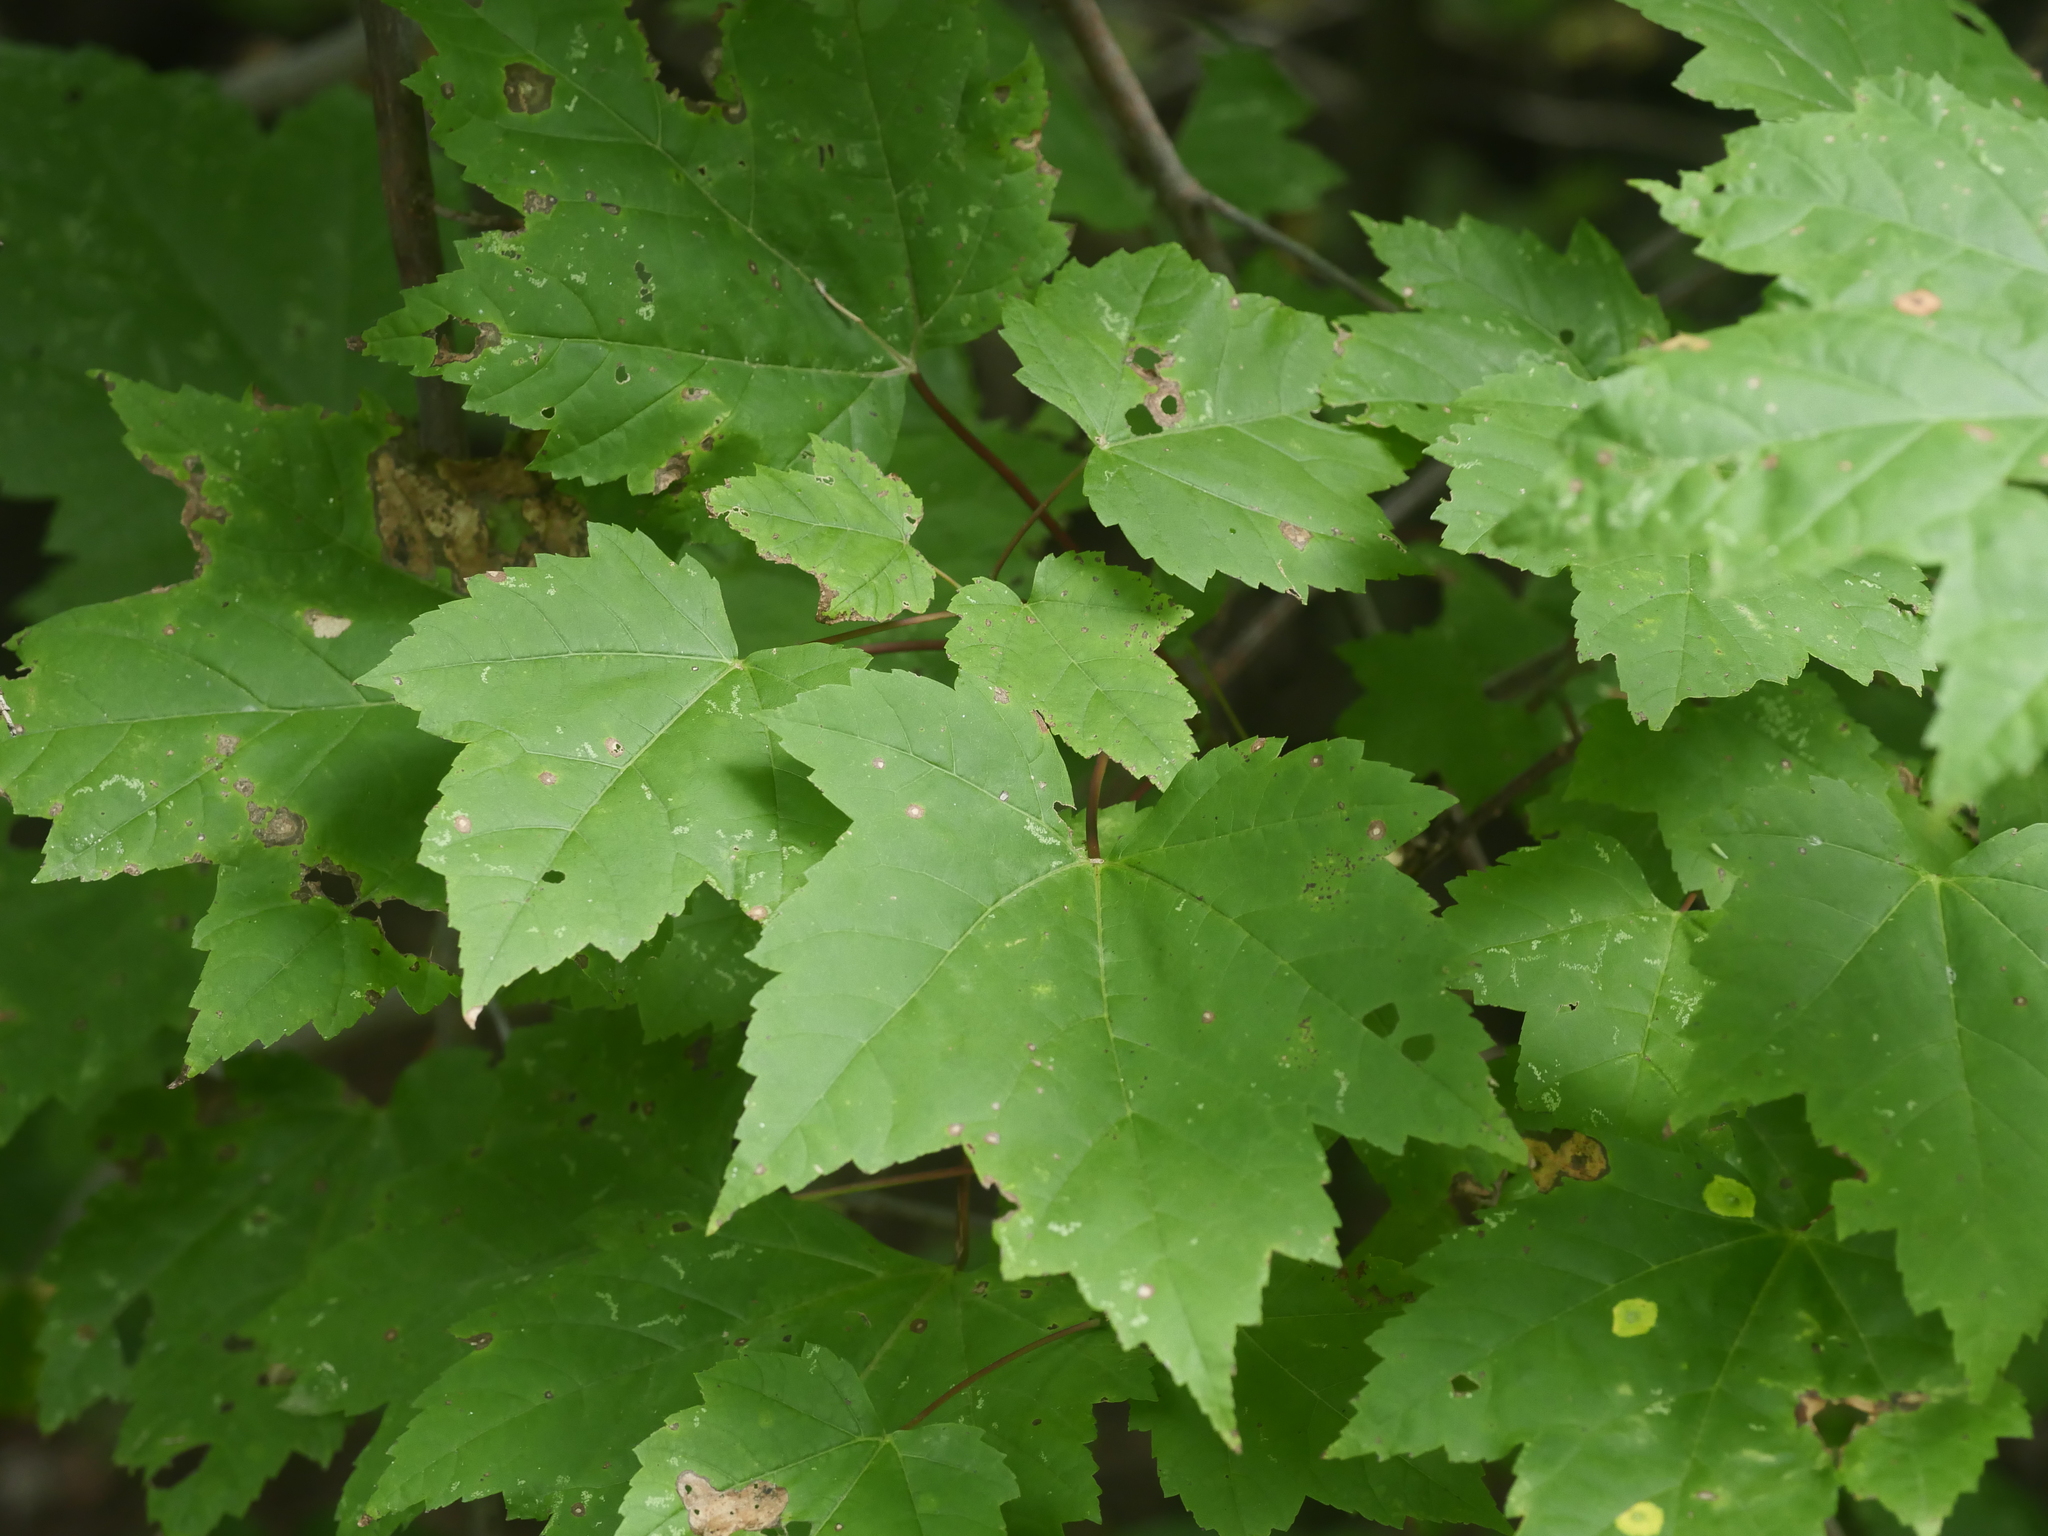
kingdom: Plantae
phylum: Tracheophyta
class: Magnoliopsida
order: Sapindales
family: Sapindaceae
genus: Acer
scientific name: Acer rubrum
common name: Red maple
